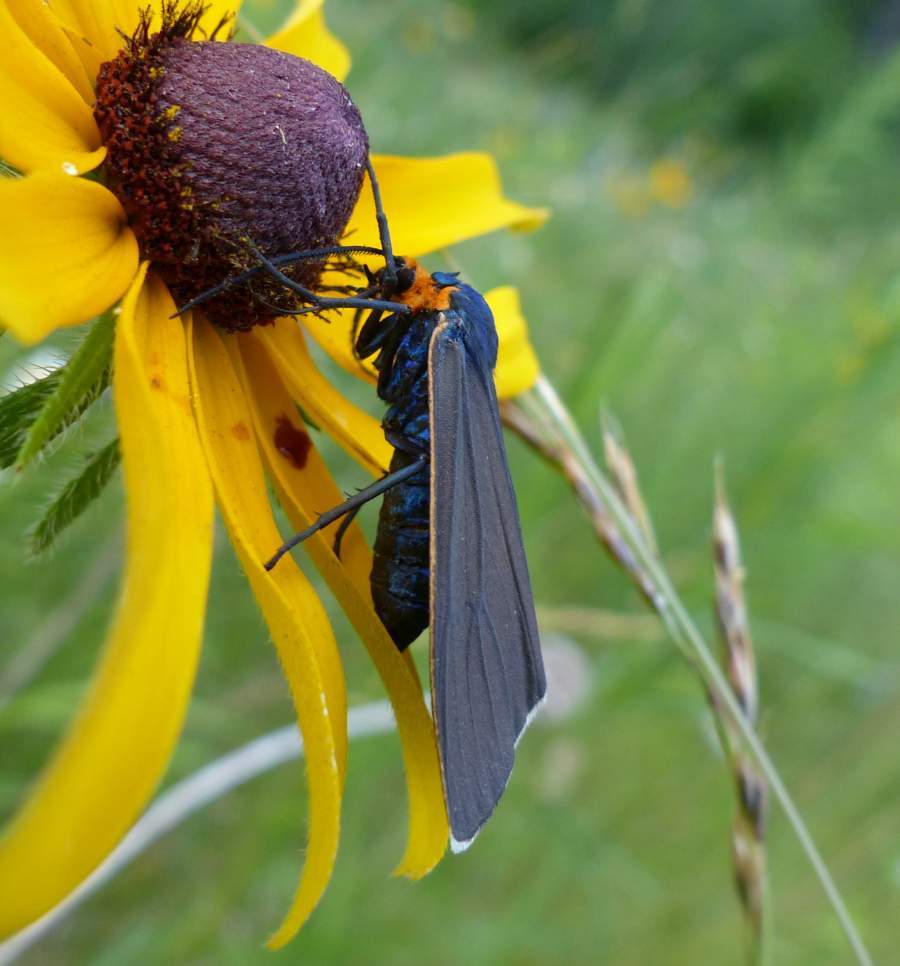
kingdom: Animalia
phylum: Arthropoda
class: Insecta
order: Lepidoptera
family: Erebidae
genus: Ctenucha
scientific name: Ctenucha virginica
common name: Virginia ctenucha moth
